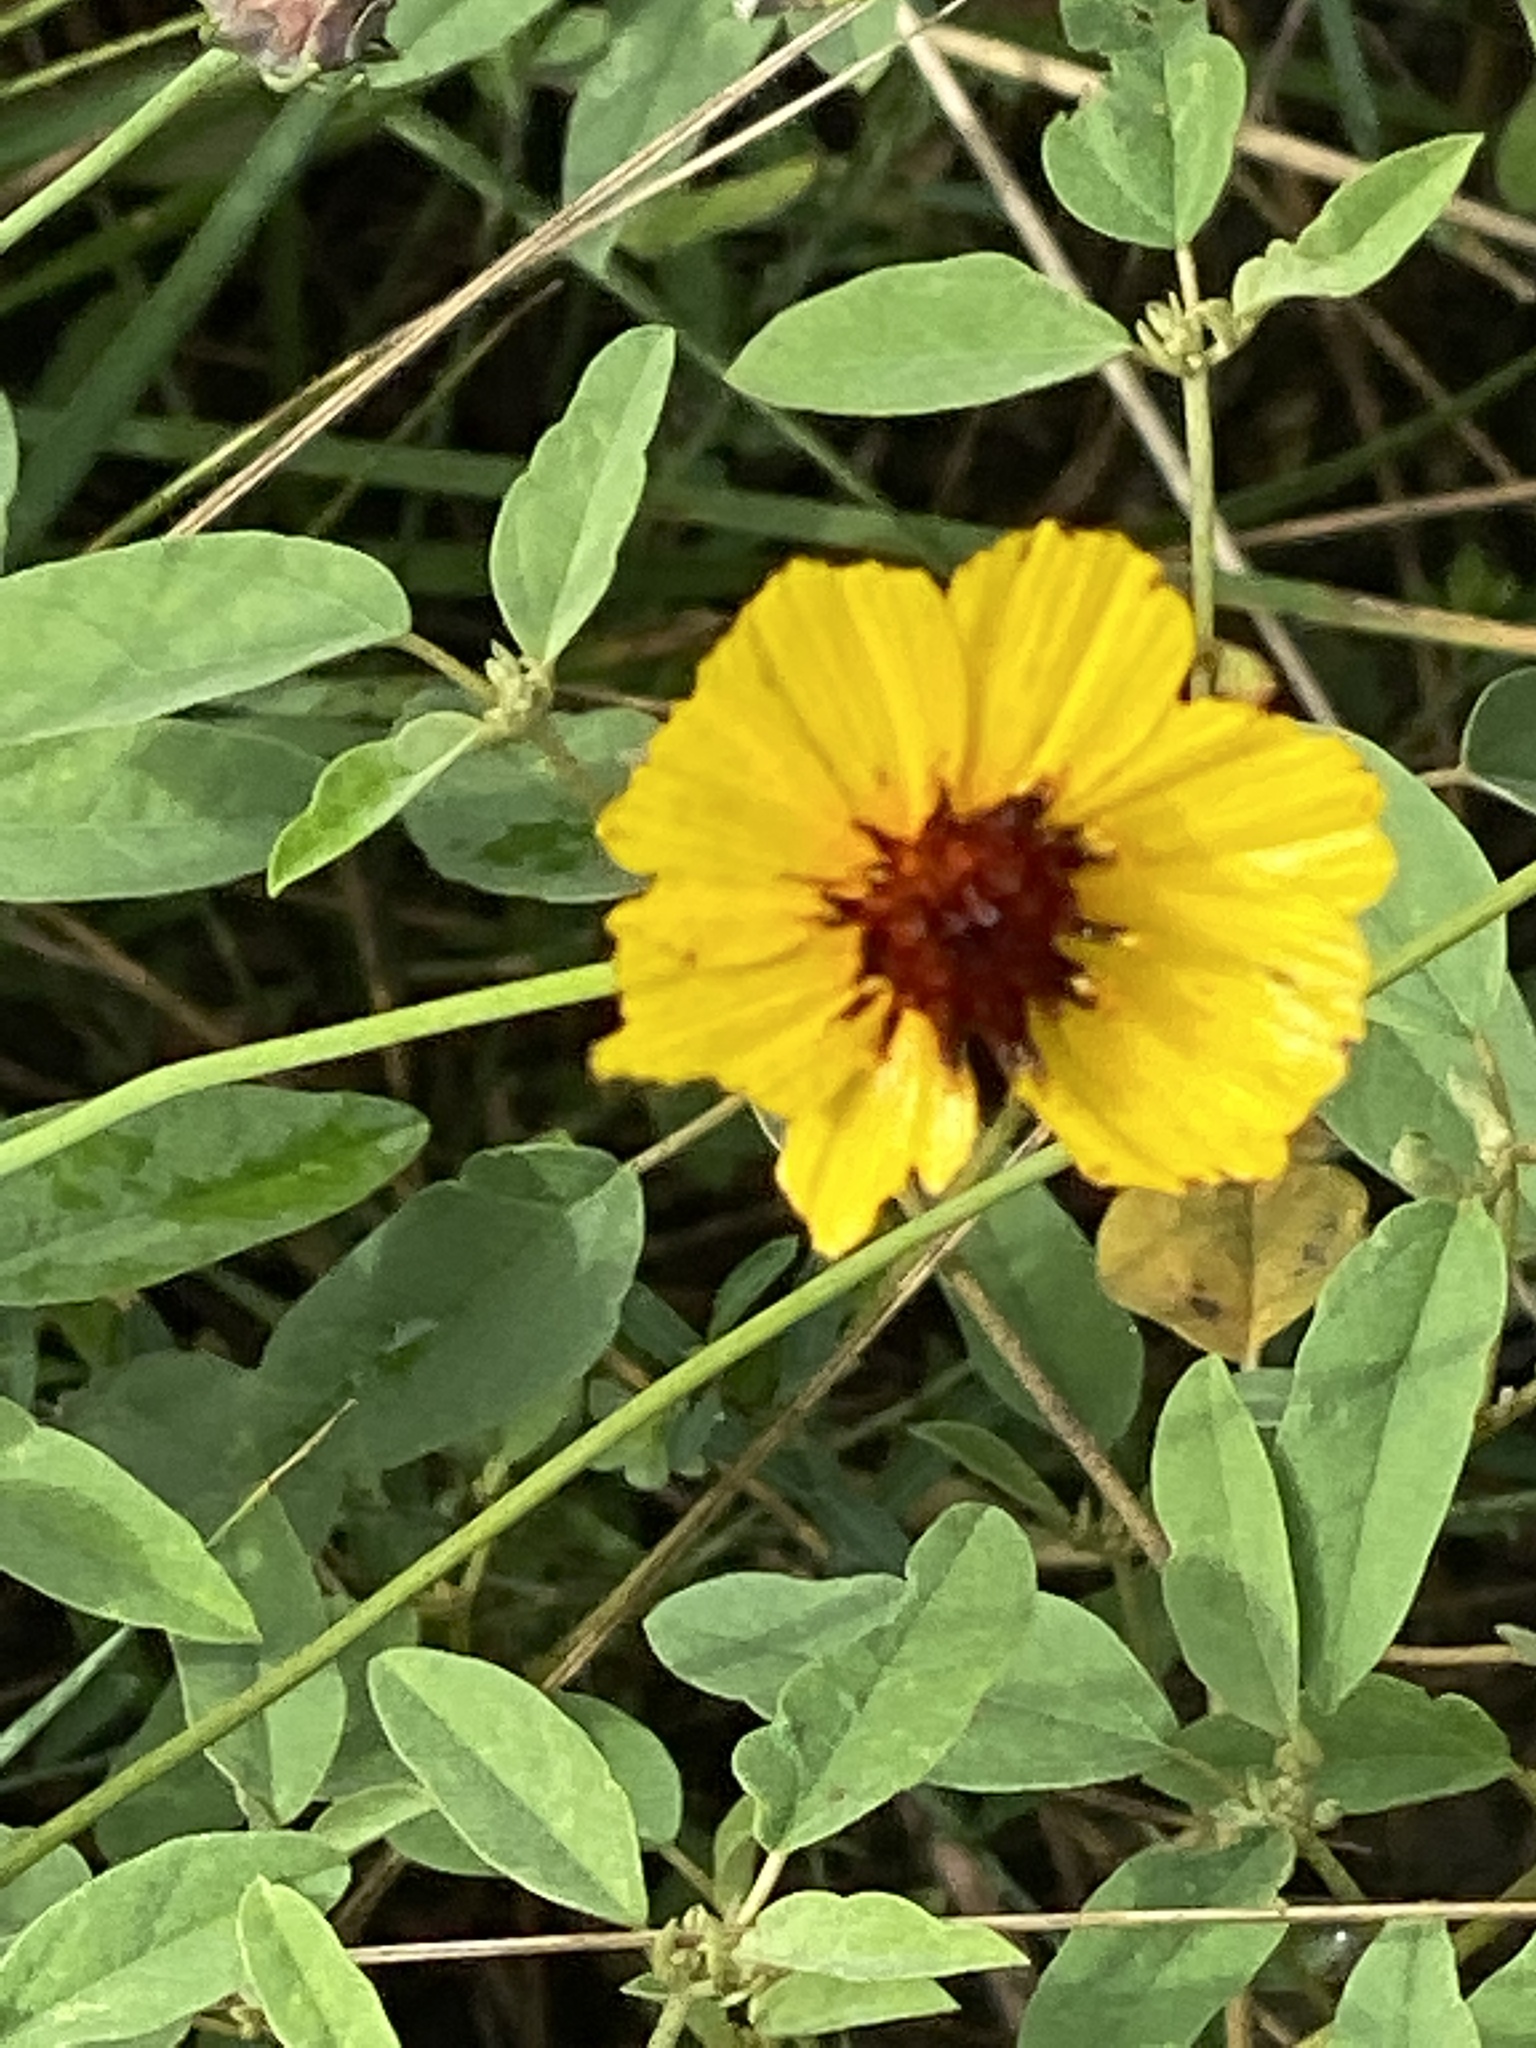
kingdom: Plantae
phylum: Tracheophyta
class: Magnoliopsida
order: Asterales
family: Asteraceae
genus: Thelesperma
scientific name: Thelesperma filifolium
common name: Stiff greenthread
